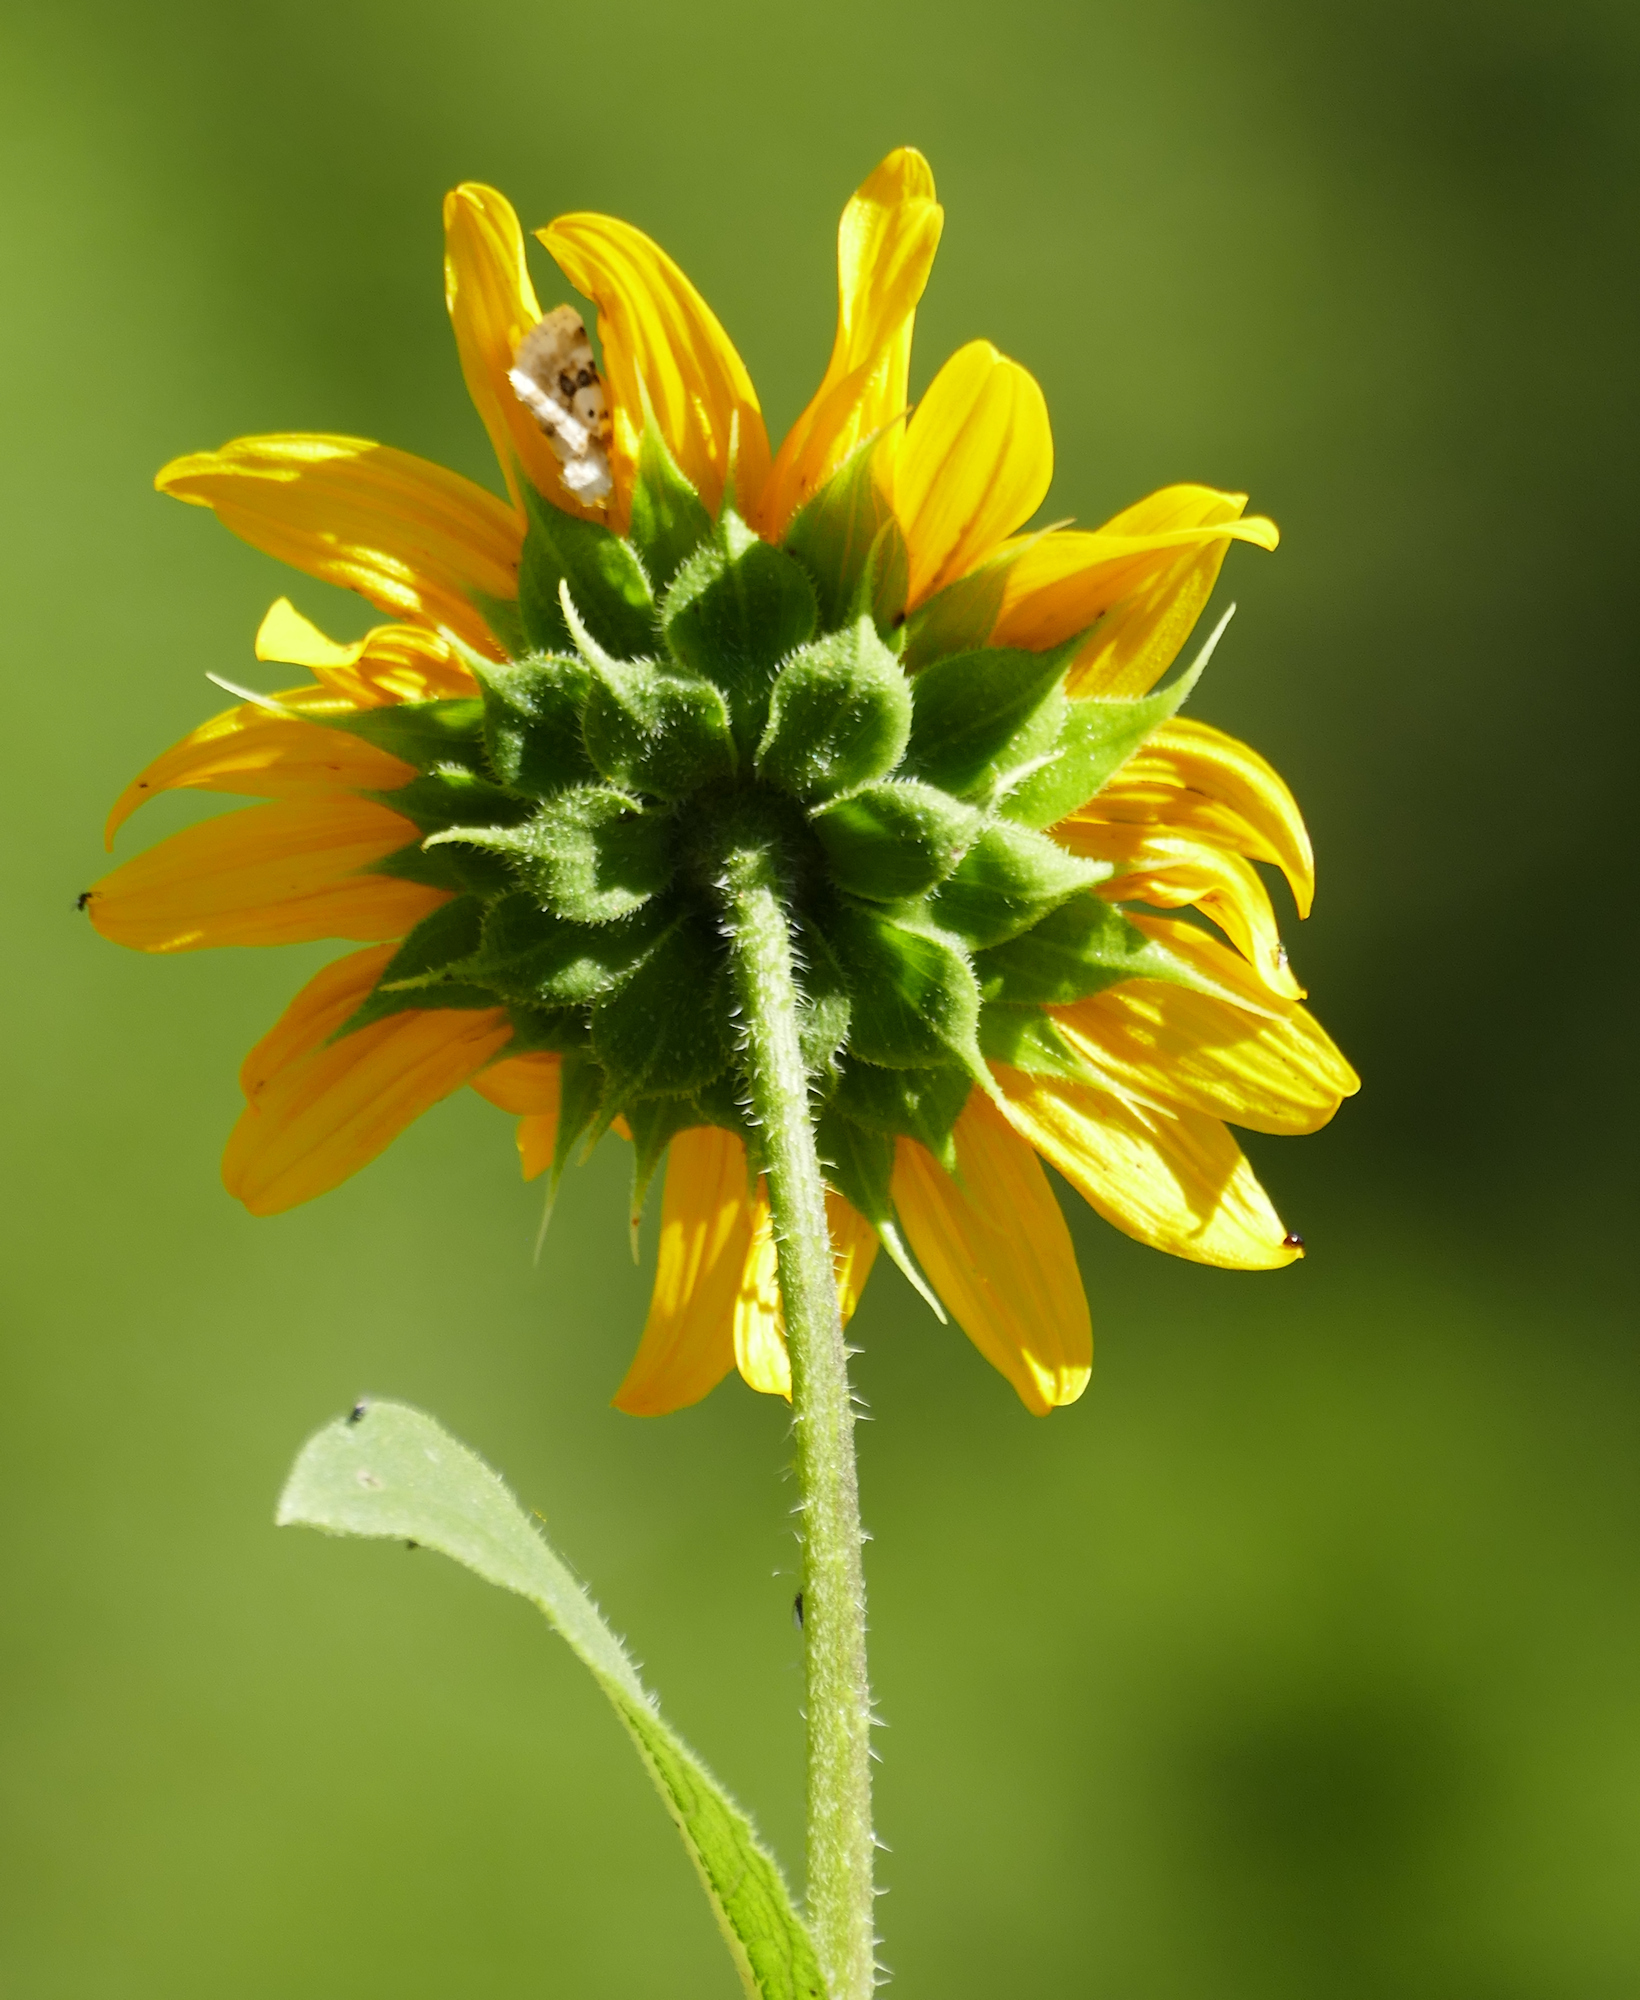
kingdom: Plantae
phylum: Tracheophyta
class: Magnoliopsida
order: Asterales
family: Asteraceae
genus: Helianthus
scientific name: Helianthus annuus
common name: Sunflower
